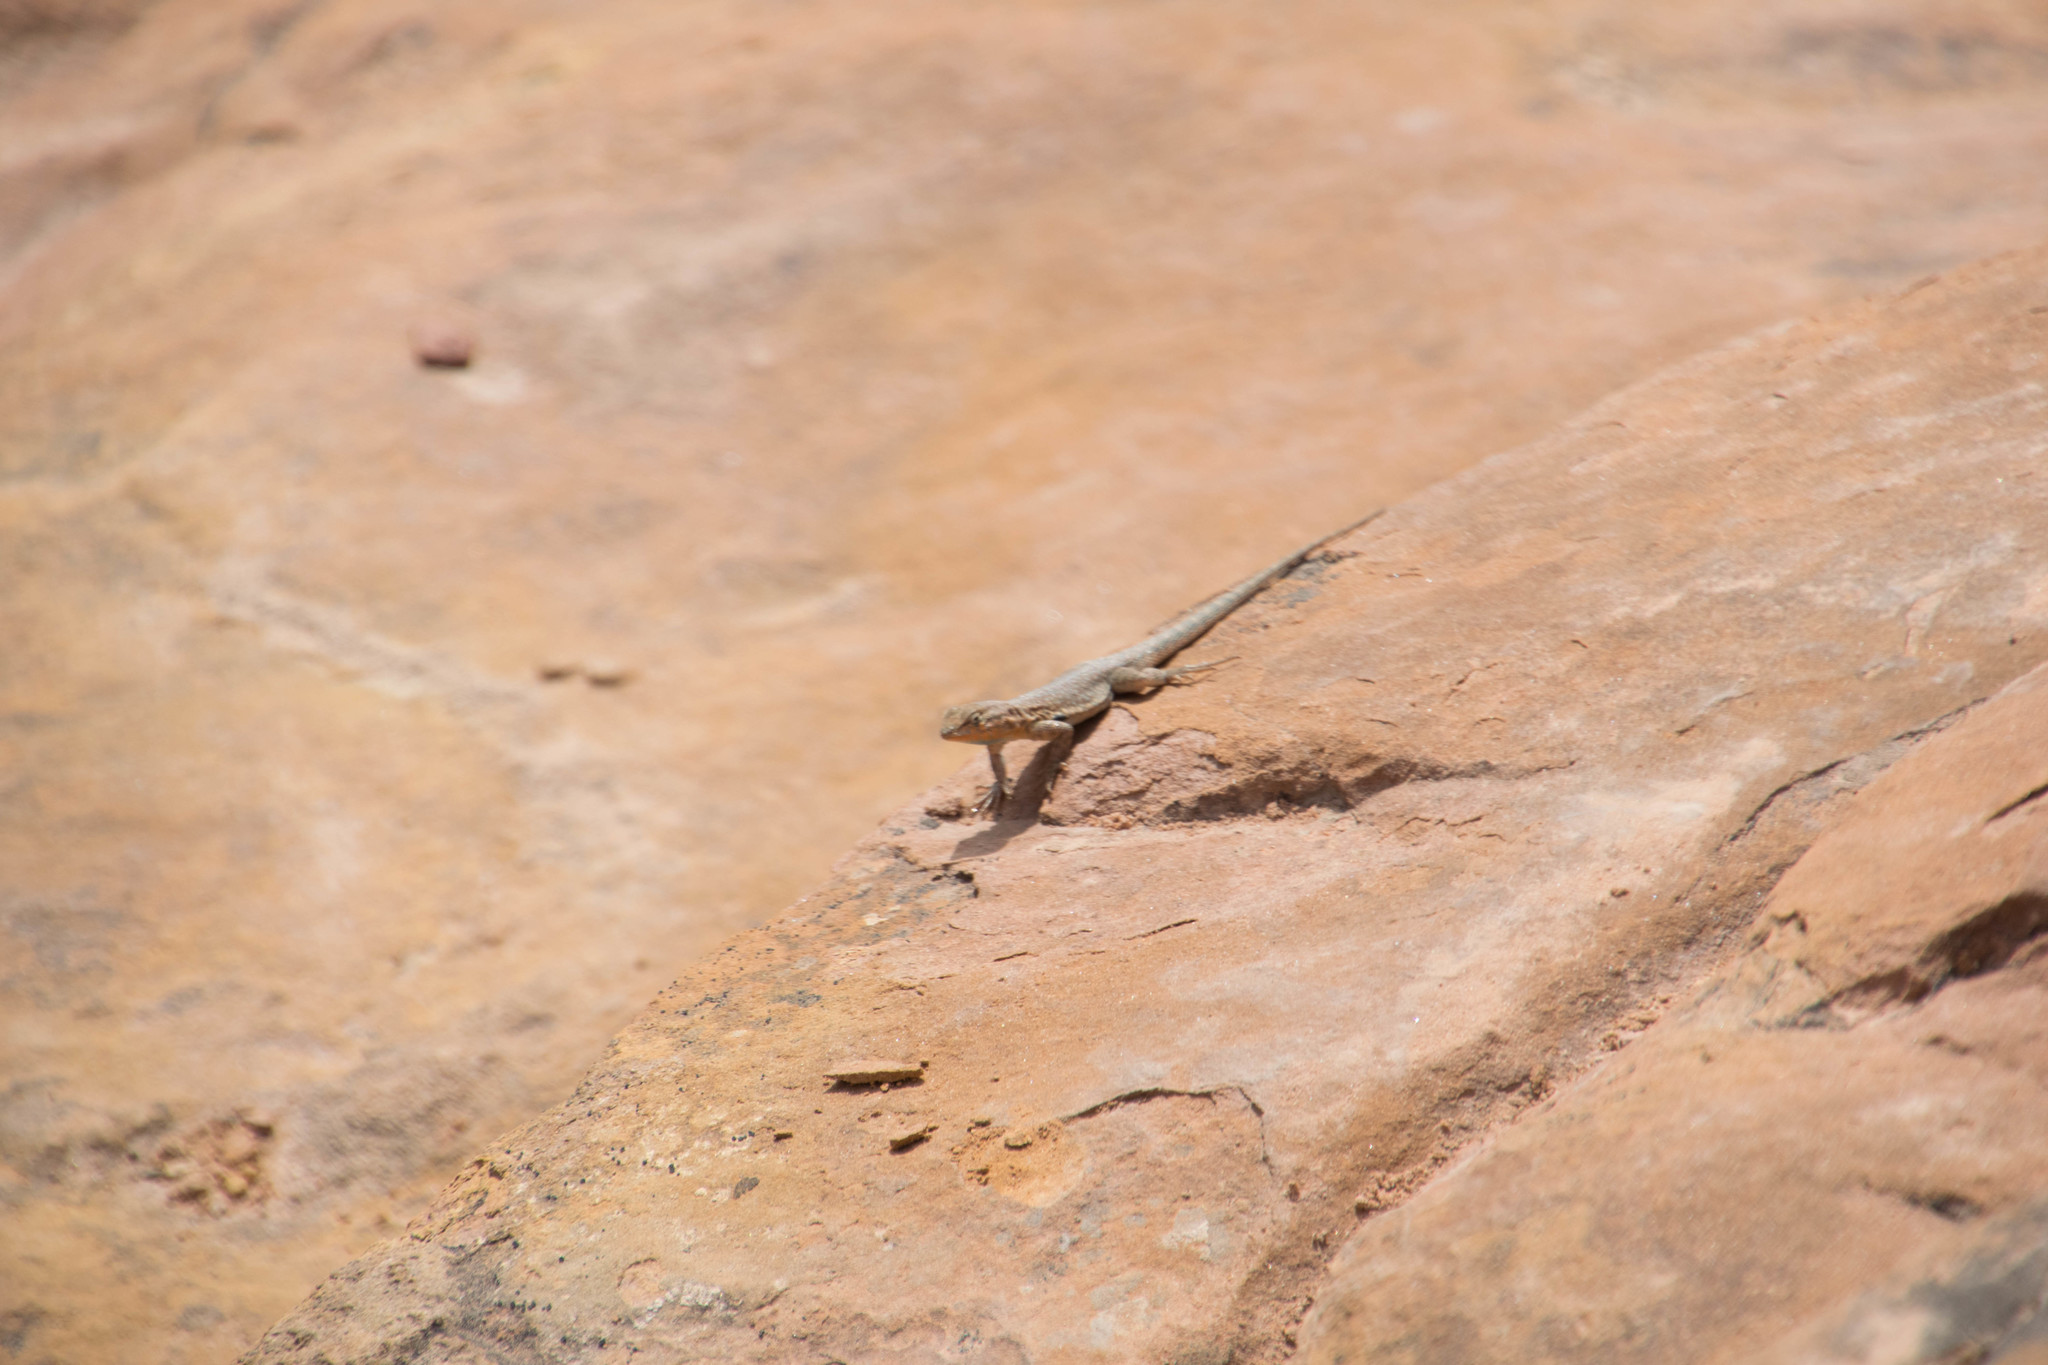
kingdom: Animalia
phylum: Chordata
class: Squamata
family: Phrynosomatidae
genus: Uta
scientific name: Uta stansburiana
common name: Side-blotched lizard
